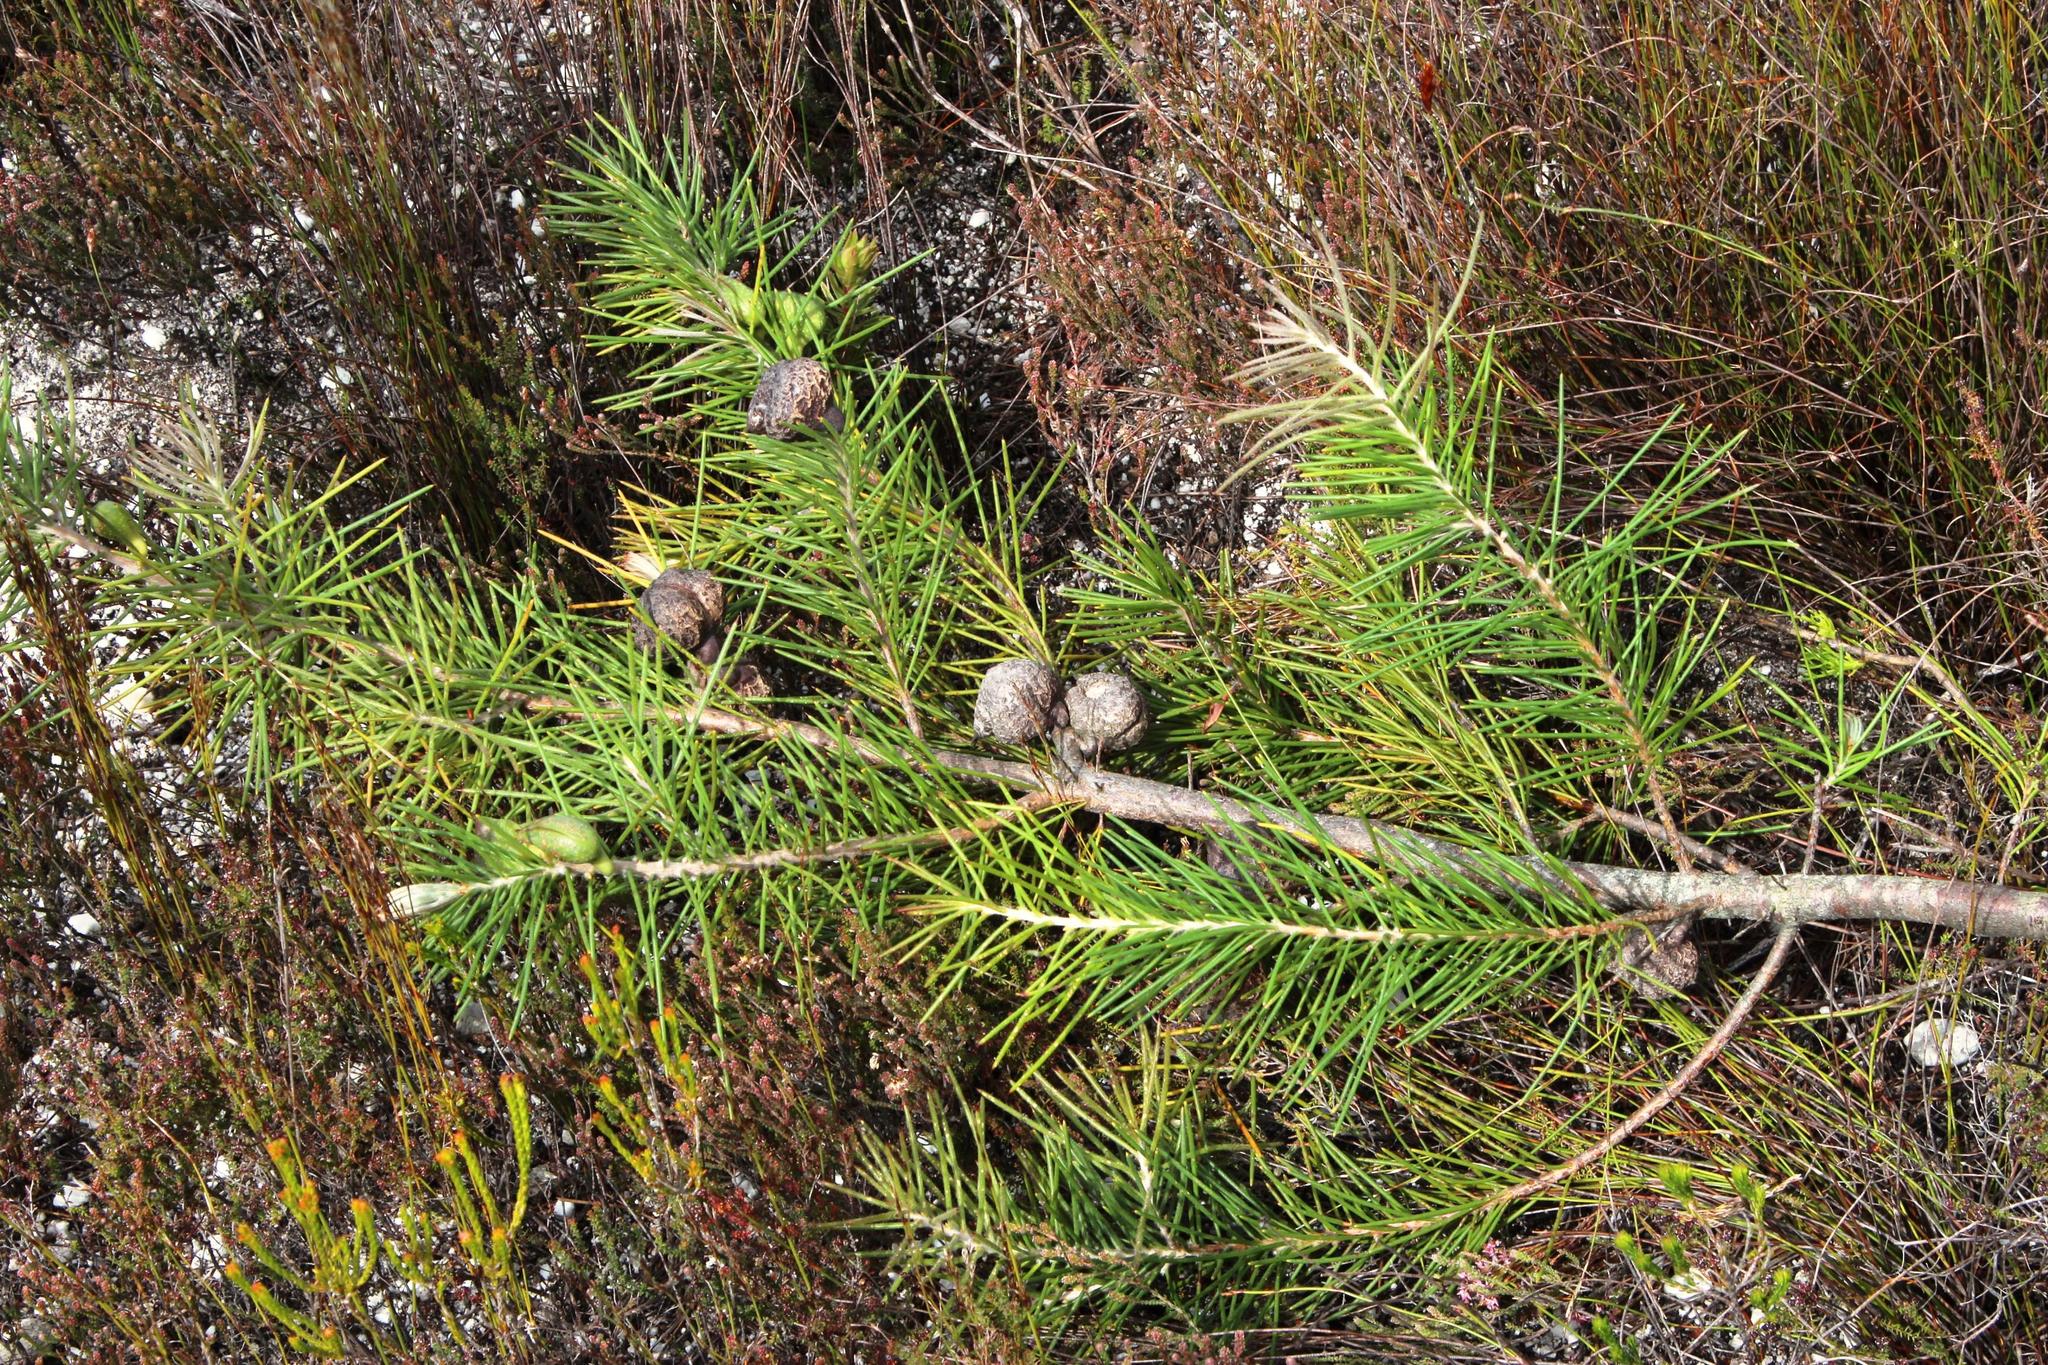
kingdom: Plantae
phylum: Tracheophyta
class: Magnoliopsida
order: Proteales
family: Proteaceae
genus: Hakea
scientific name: Hakea gibbosa
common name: Rock hakea
